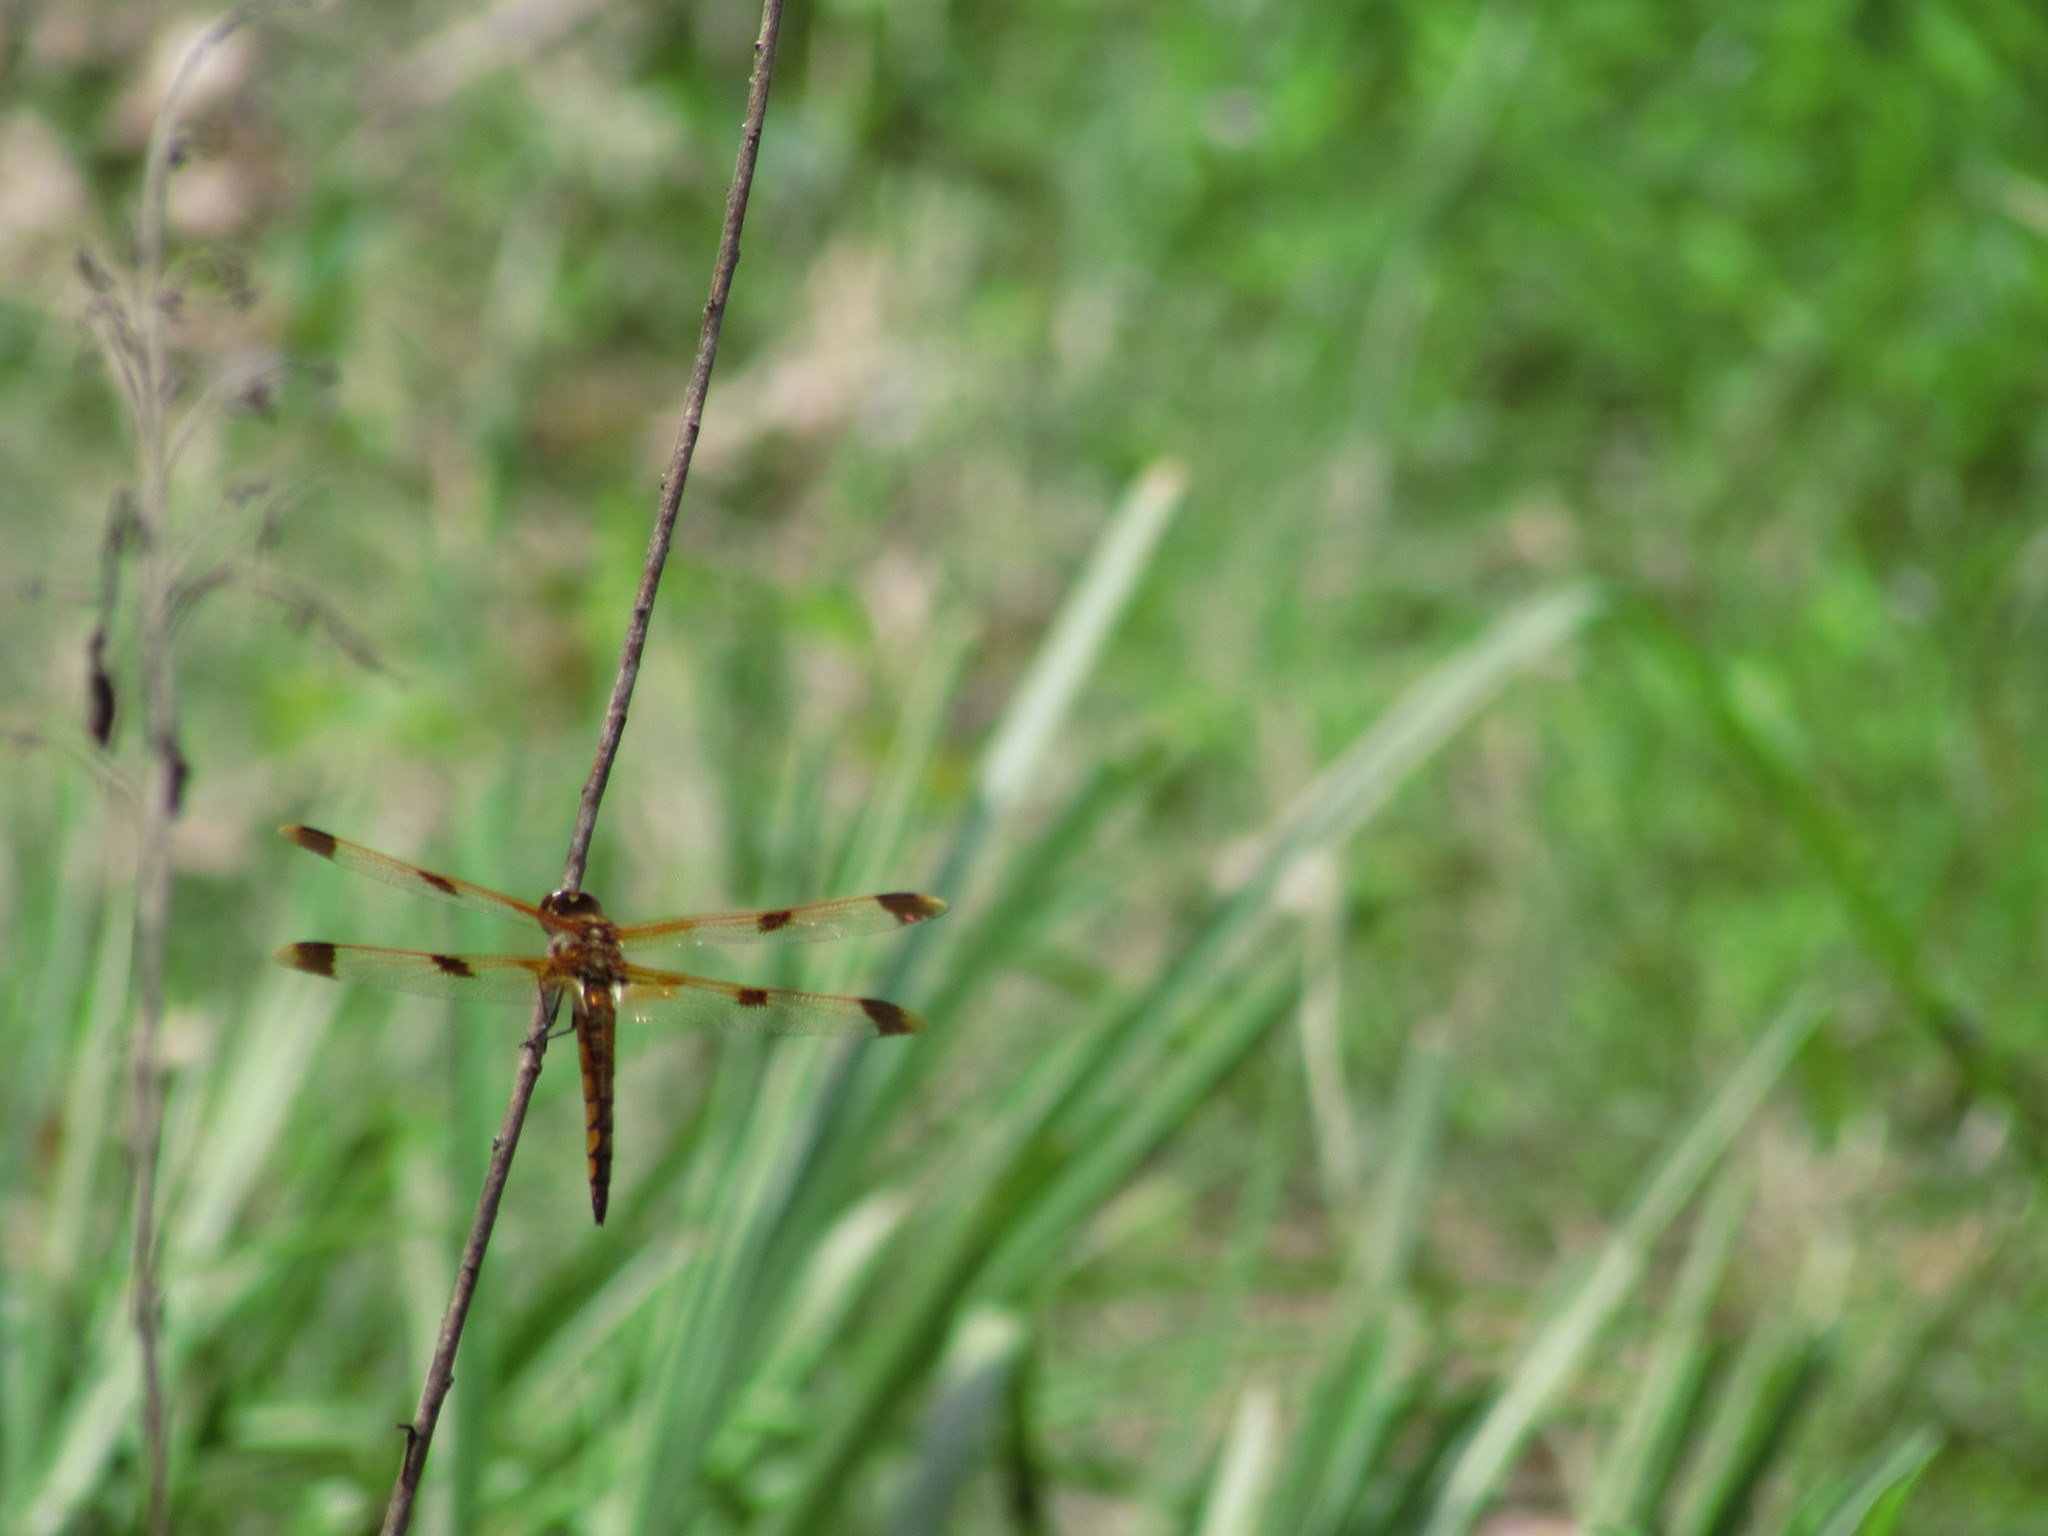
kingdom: Animalia
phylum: Arthropoda
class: Insecta
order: Odonata
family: Libellulidae
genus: Libellula
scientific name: Libellula semifasciata
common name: Painted skimmer
